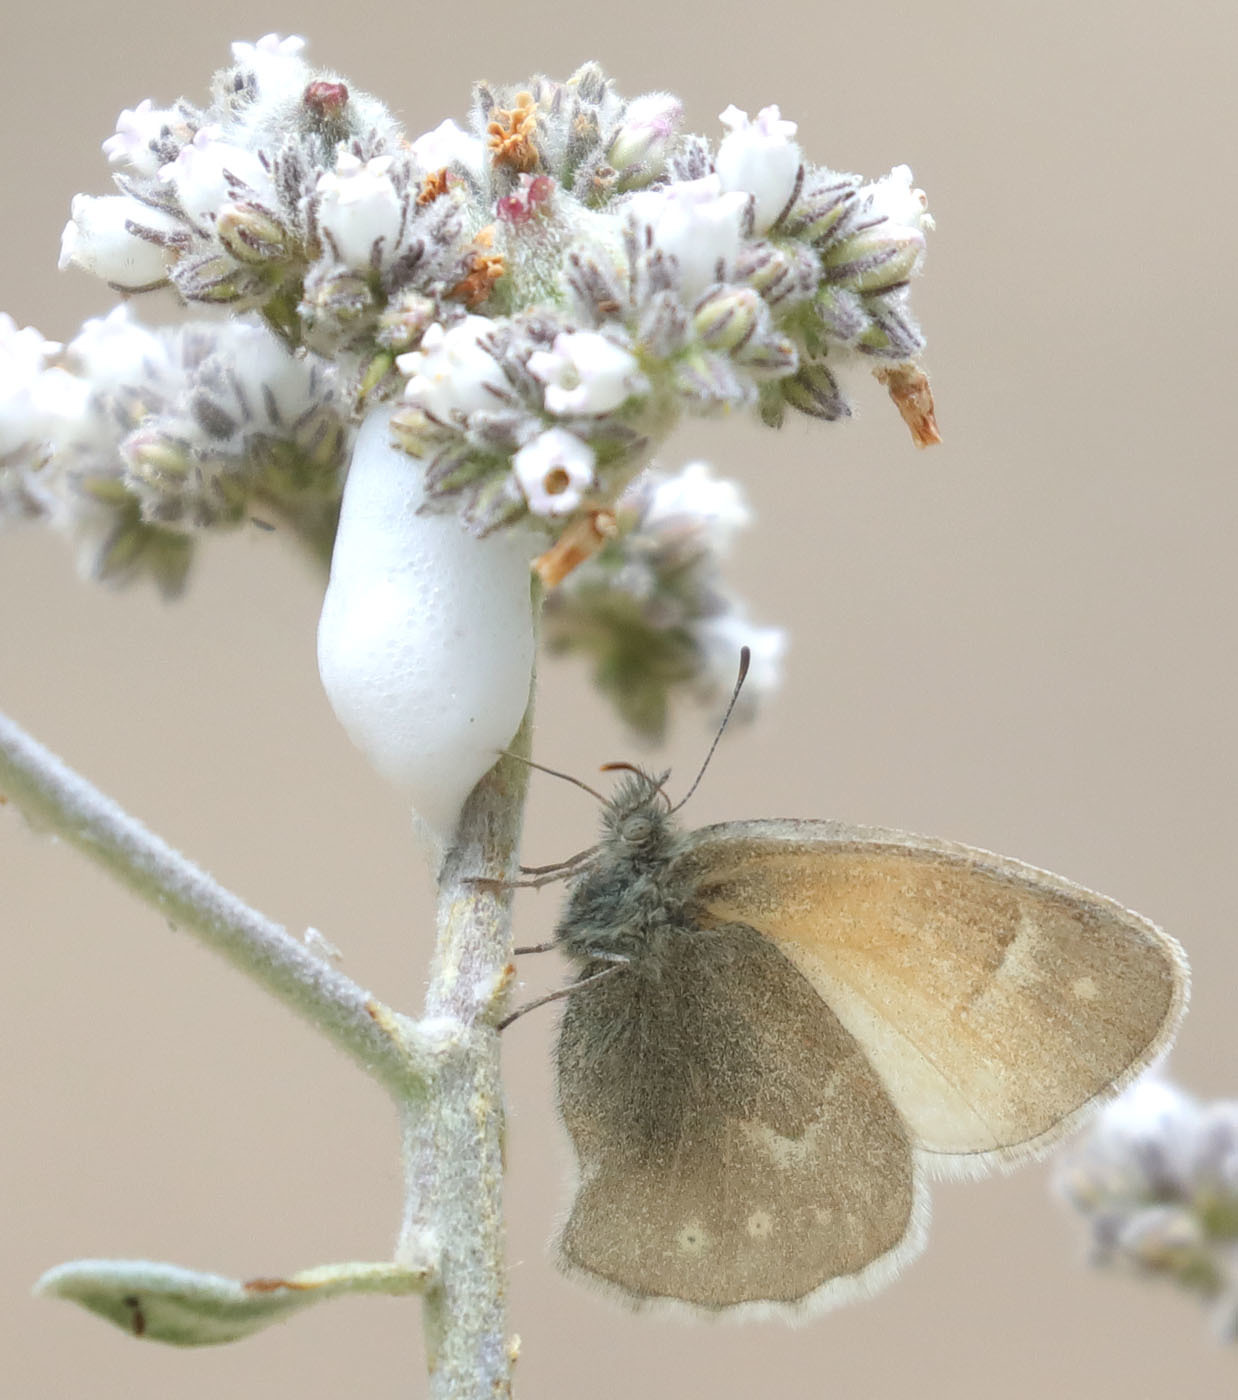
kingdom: Animalia
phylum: Arthropoda
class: Insecta
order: Lepidoptera
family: Nymphalidae
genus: Coenonympha
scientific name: Coenonympha california
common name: Common ringlet
